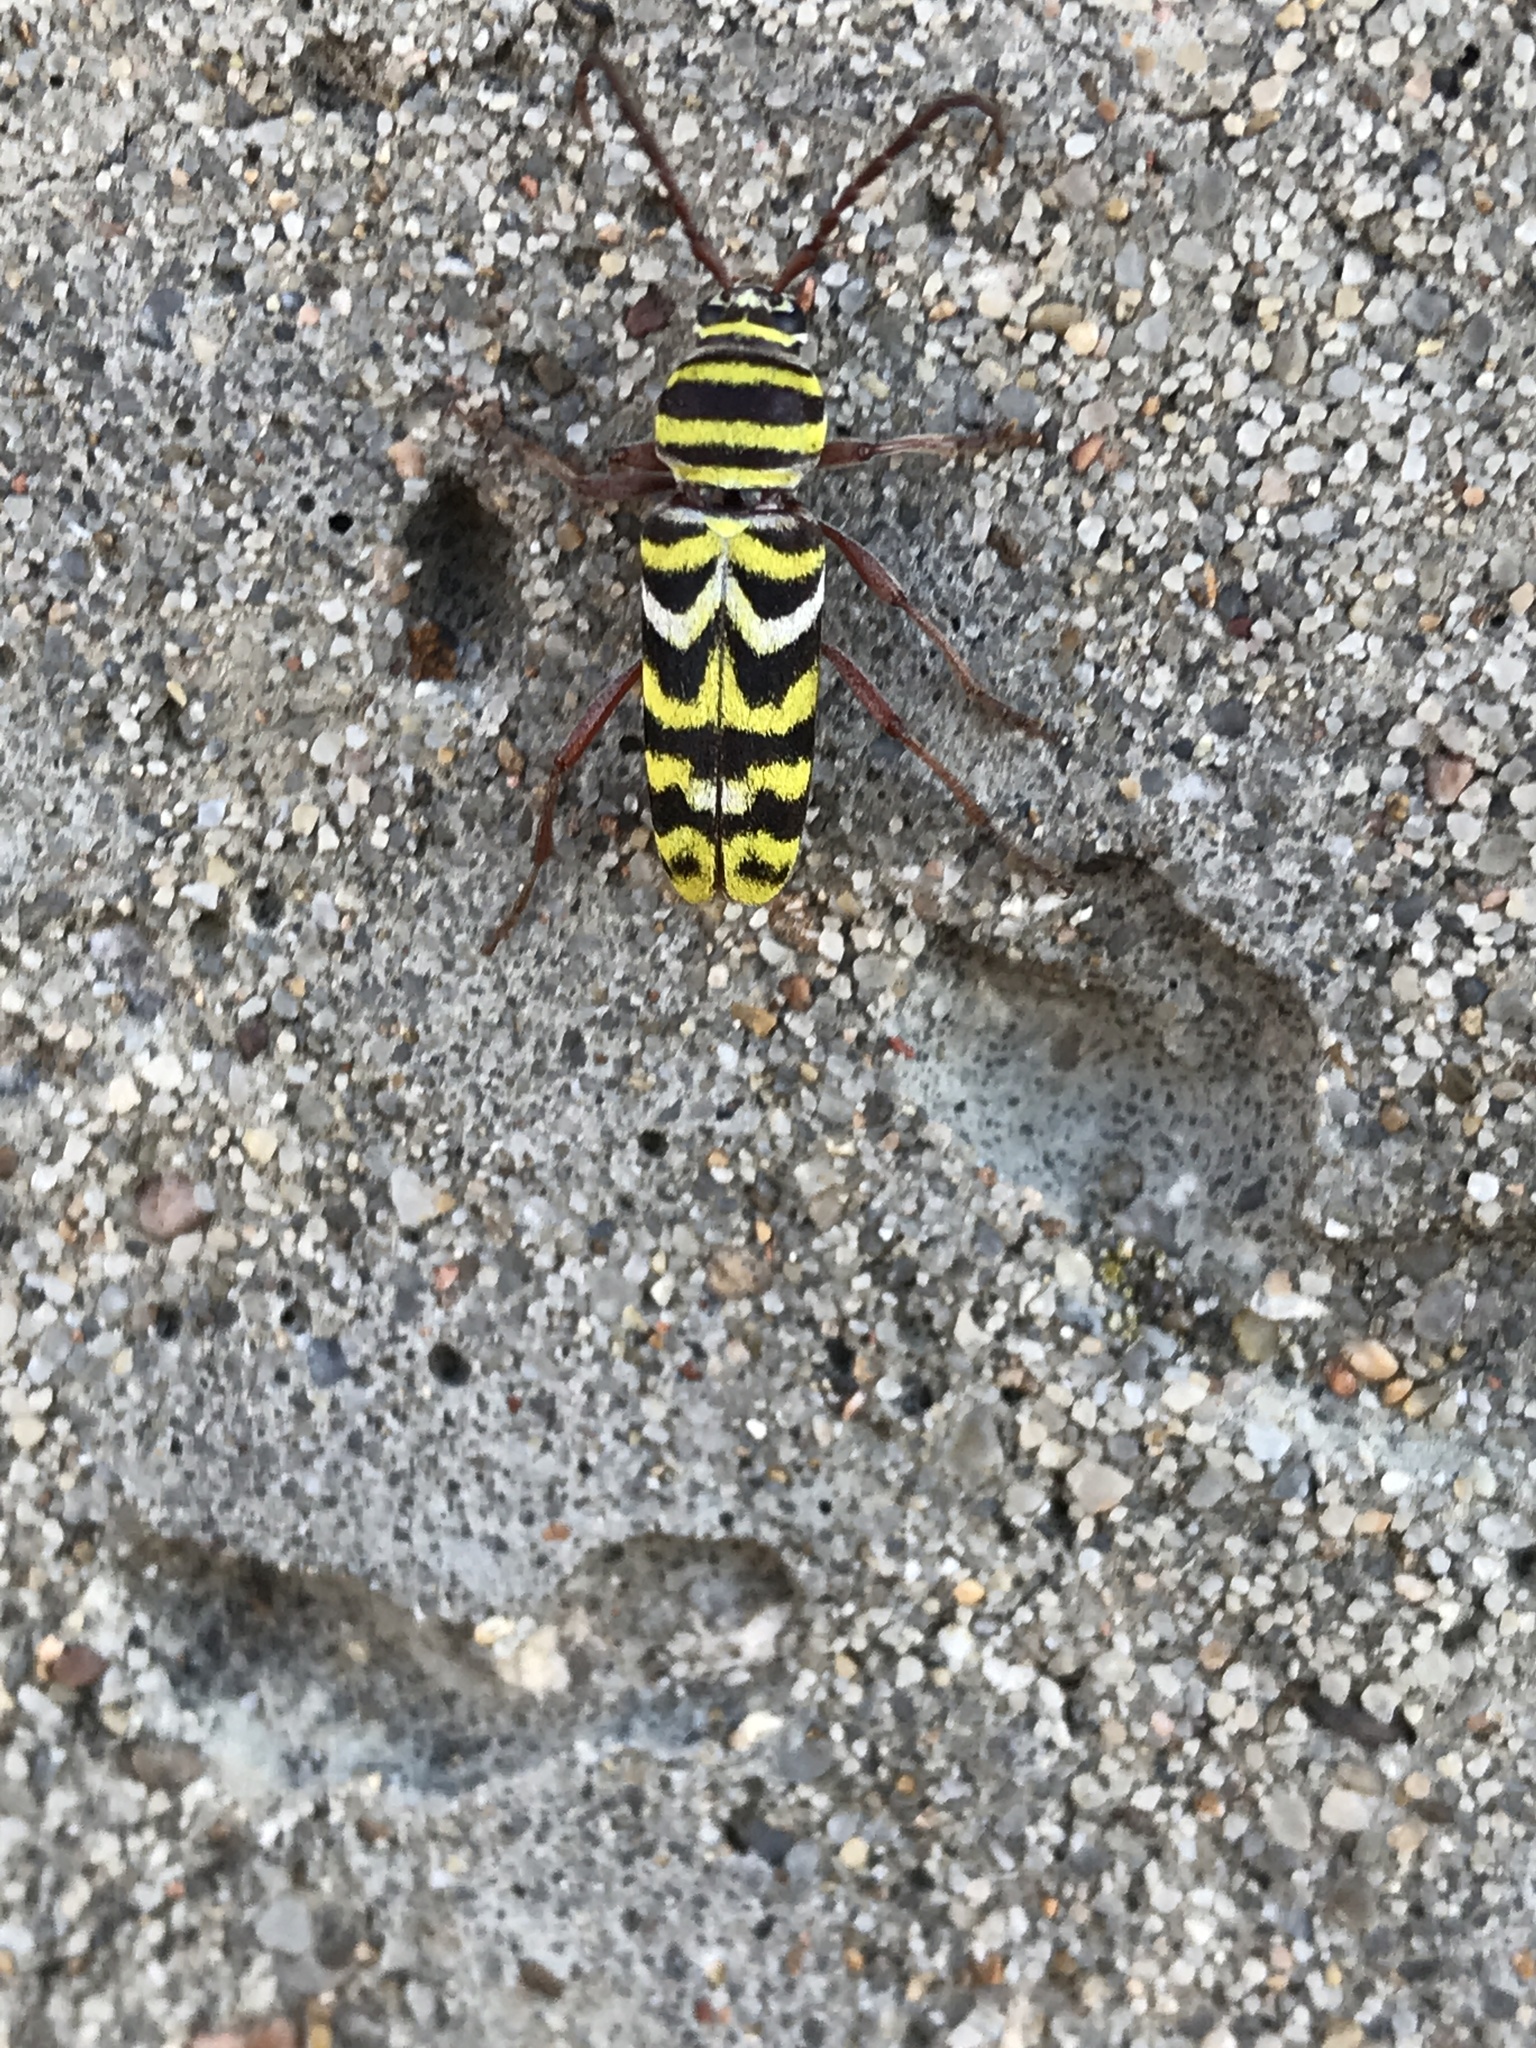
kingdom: Animalia
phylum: Arthropoda
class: Insecta
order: Coleoptera
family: Cerambycidae
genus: Megacyllene
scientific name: Megacyllene angulifera
